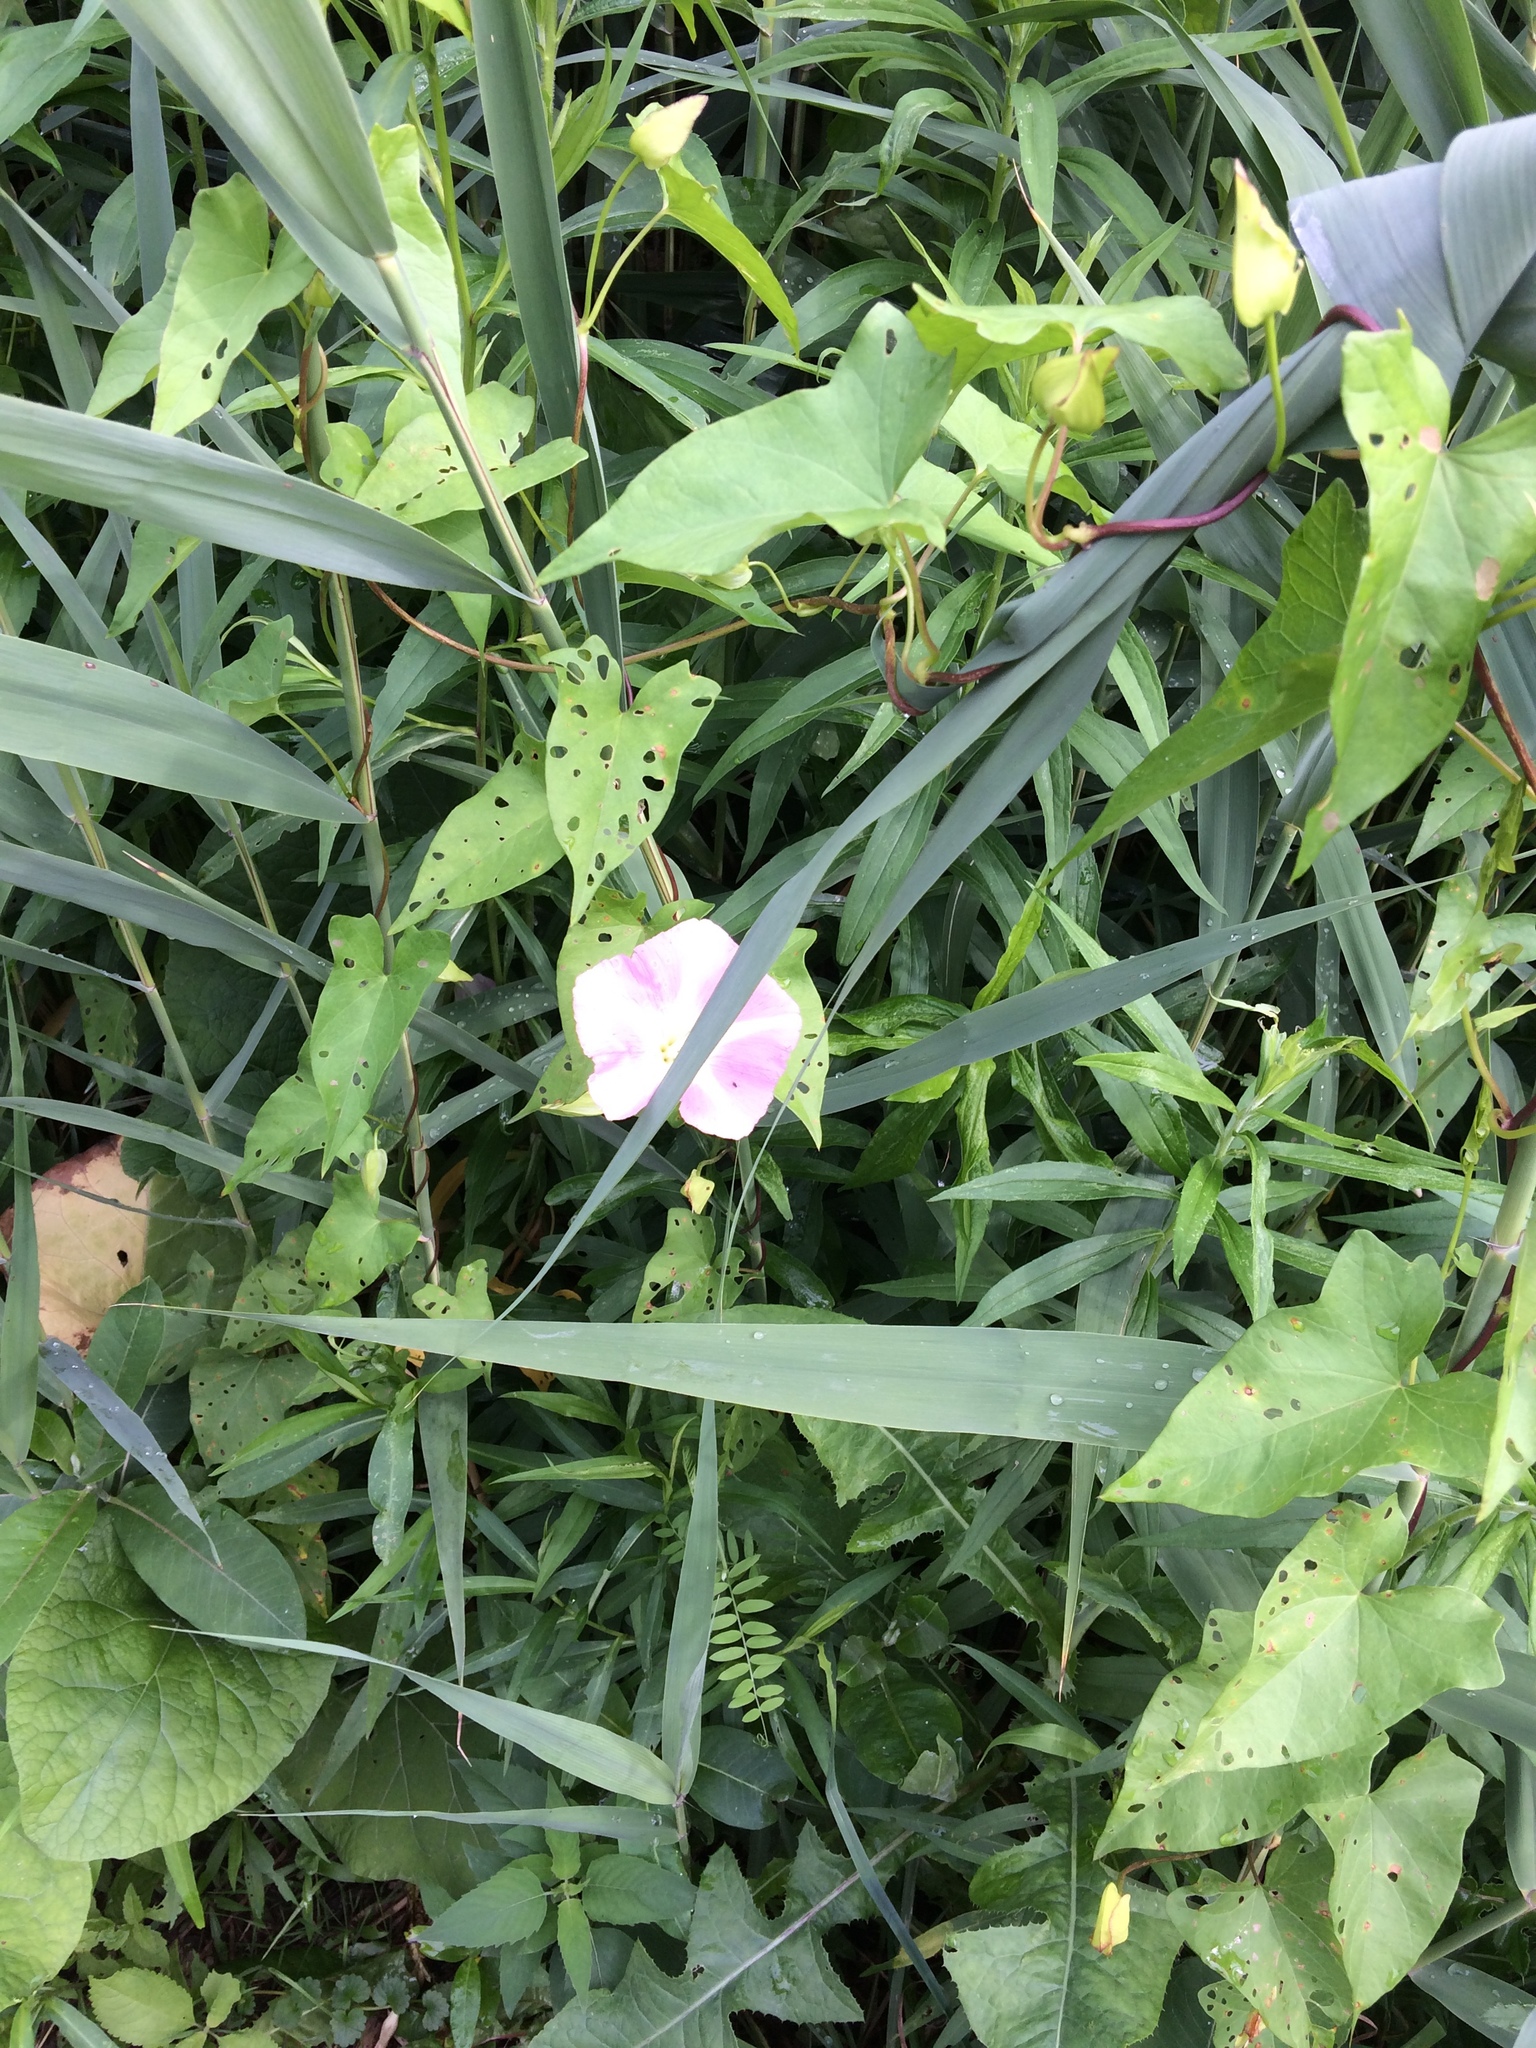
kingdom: Plantae
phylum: Tracheophyta
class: Magnoliopsida
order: Solanales
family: Convolvulaceae
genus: Calystegia
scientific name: Calystegia sepium
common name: Hedge bindweed
